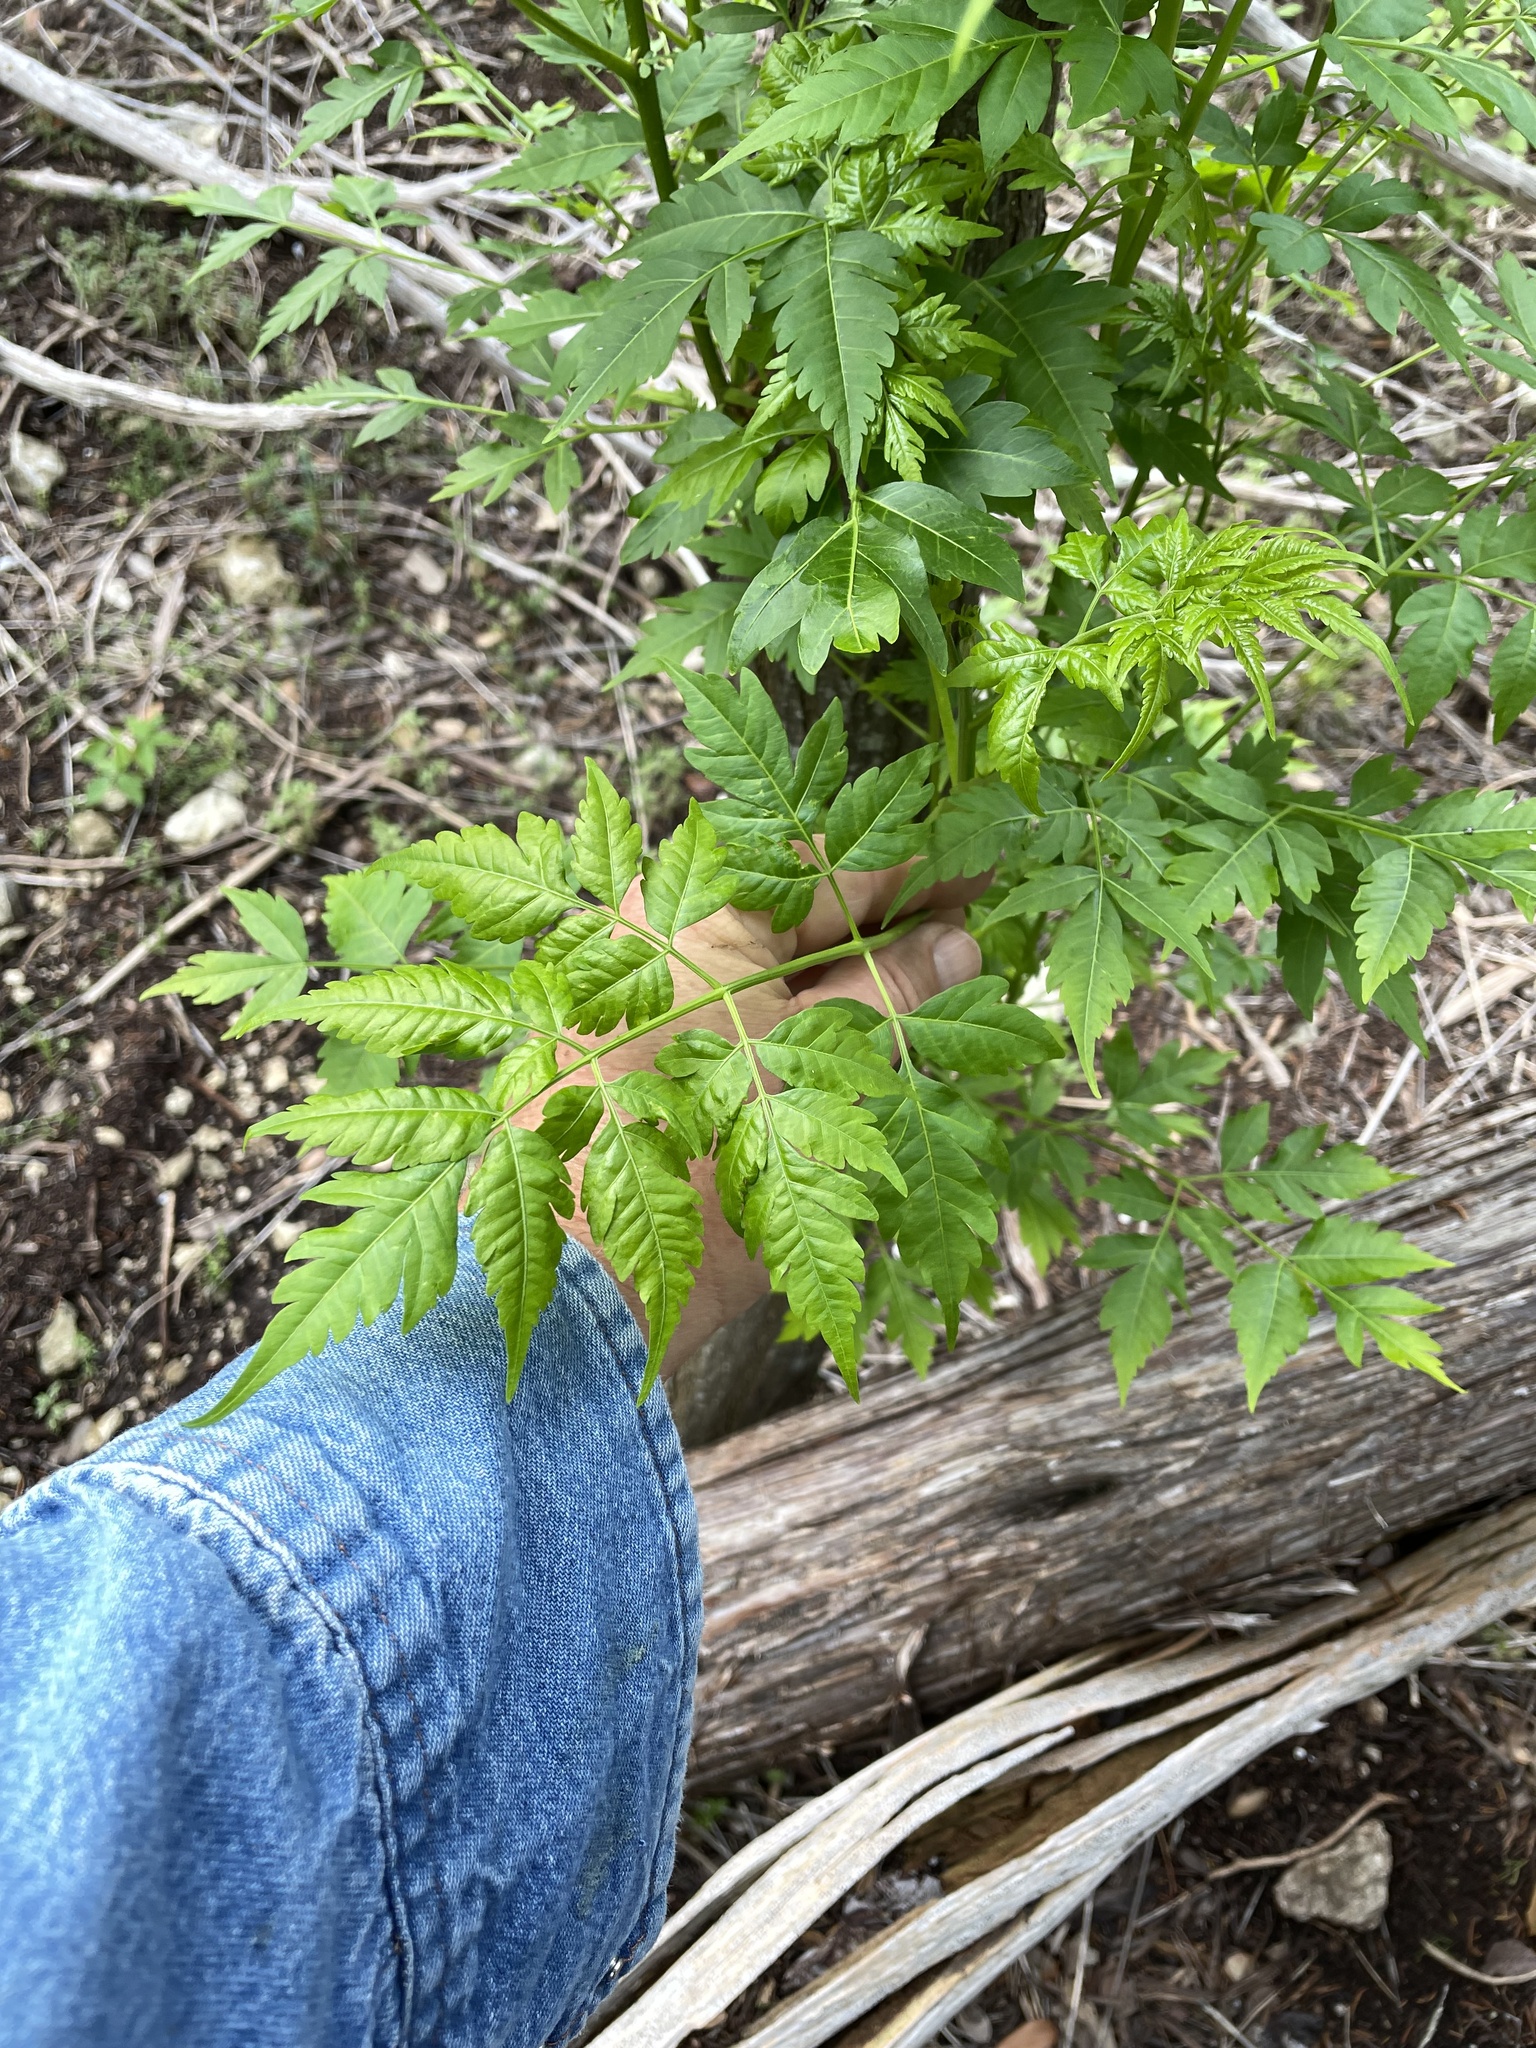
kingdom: Plantae
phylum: Tracheophyta
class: Magnoliopsida
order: Sapindales
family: Meliaceae
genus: Melia
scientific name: Melia azedarach
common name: Chinaberrytree
